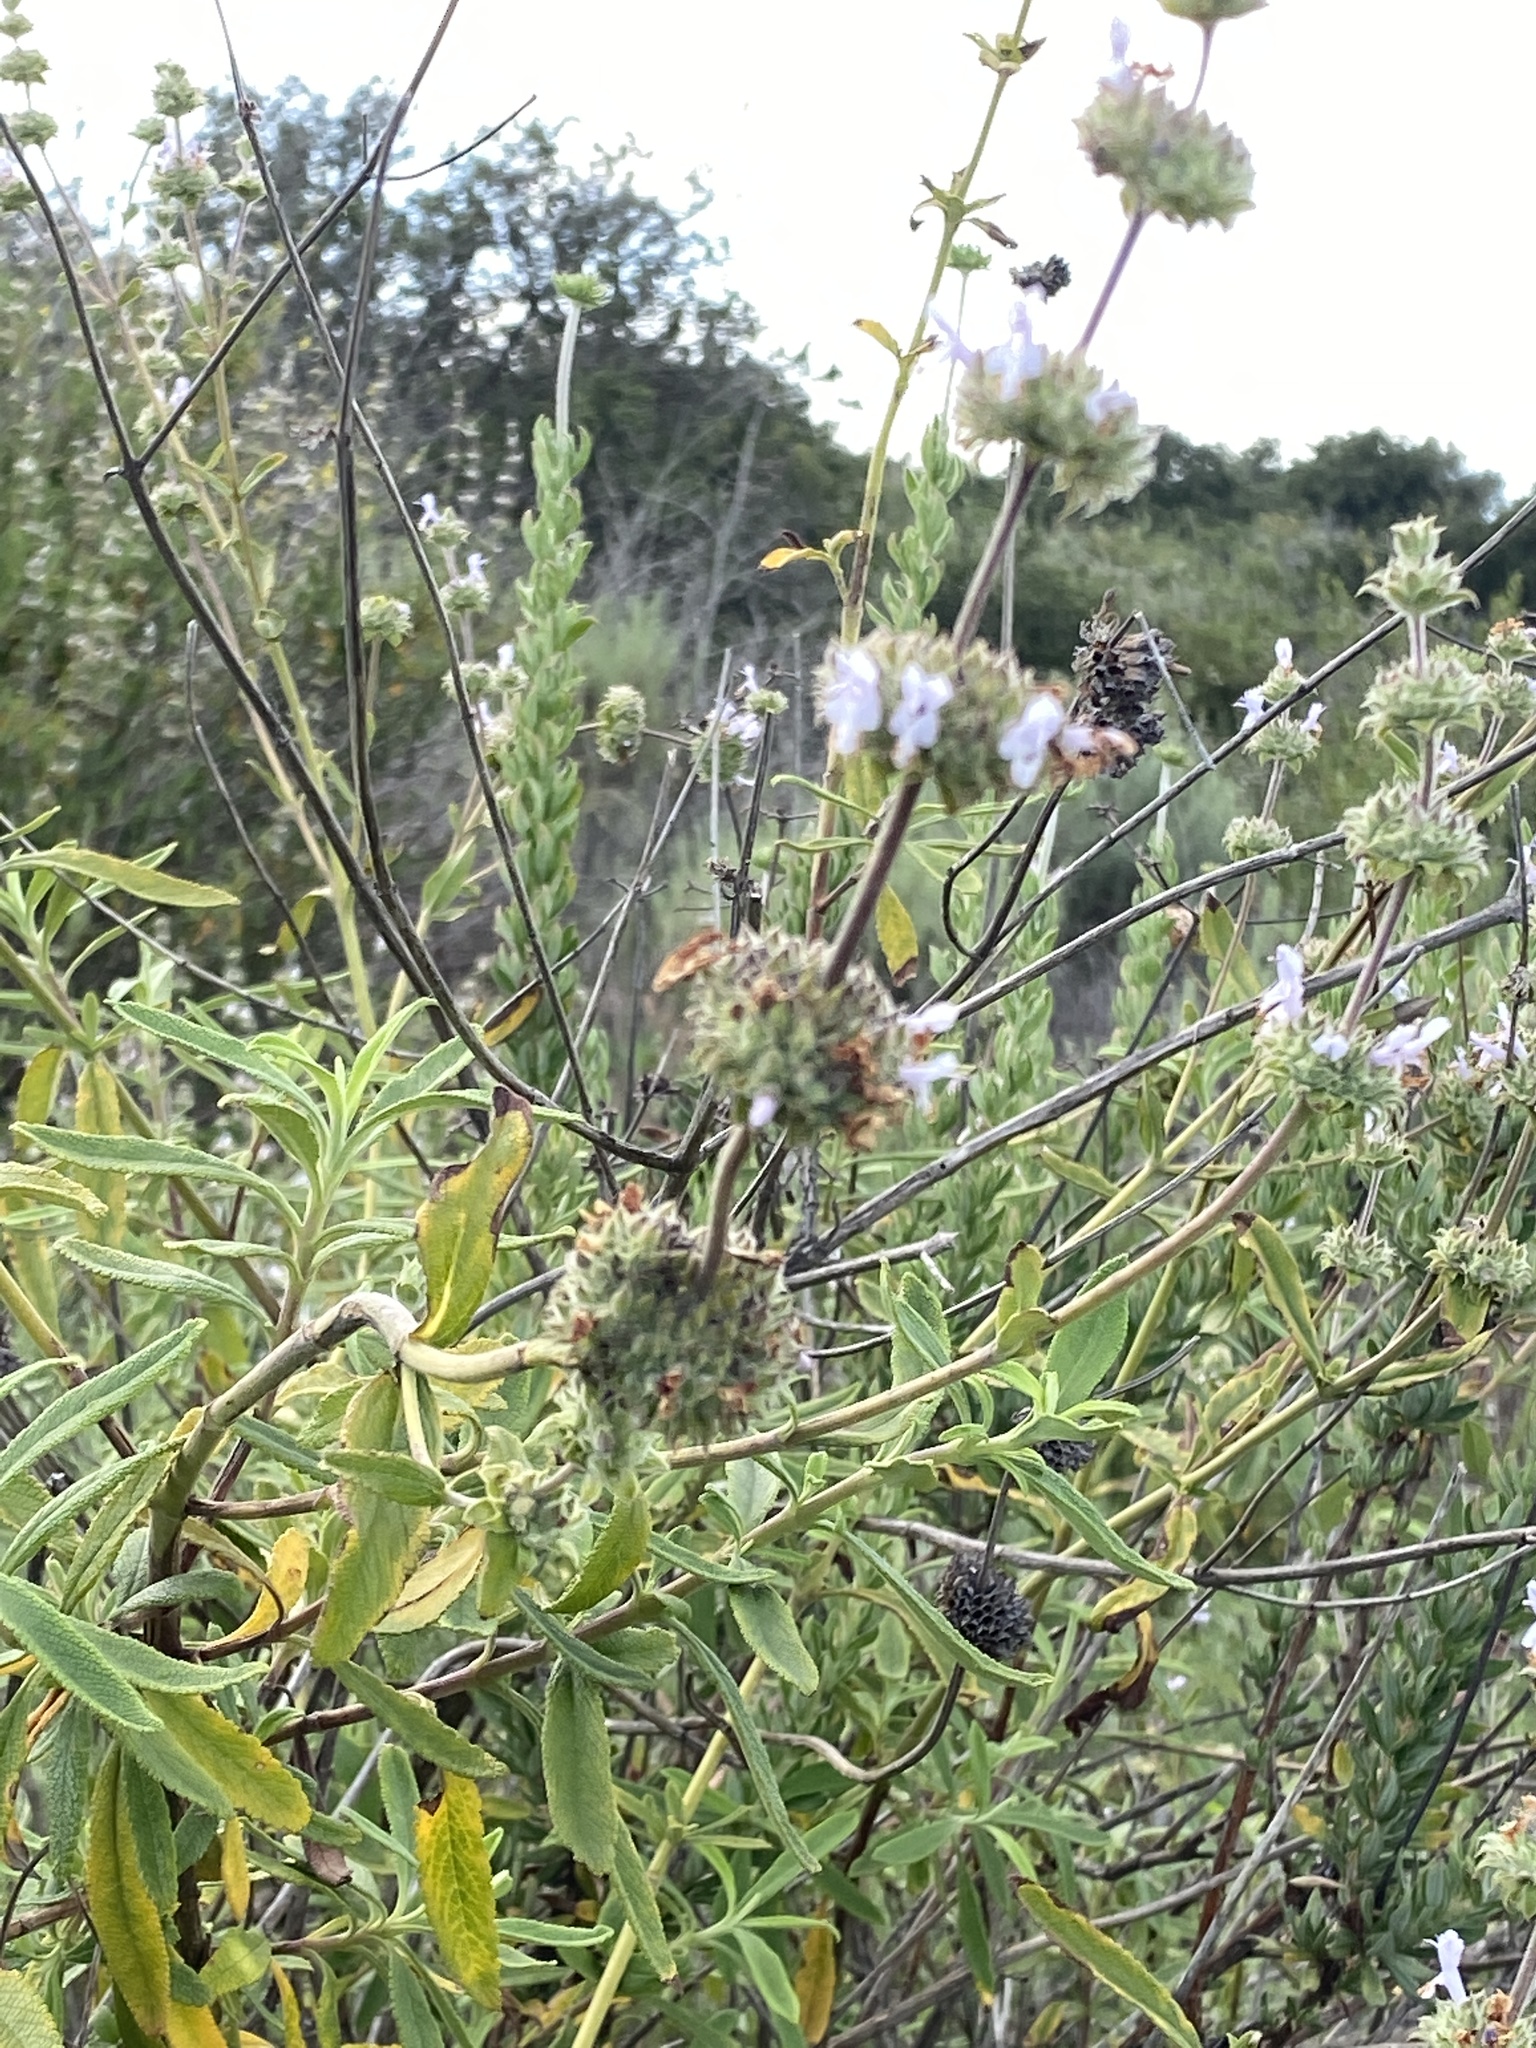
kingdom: Plantae
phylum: Tracheophyta
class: Magnoliopsida
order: Lamiales
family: Lamiaceae
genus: Salvia
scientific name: Salvia mellifera
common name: Black sage
